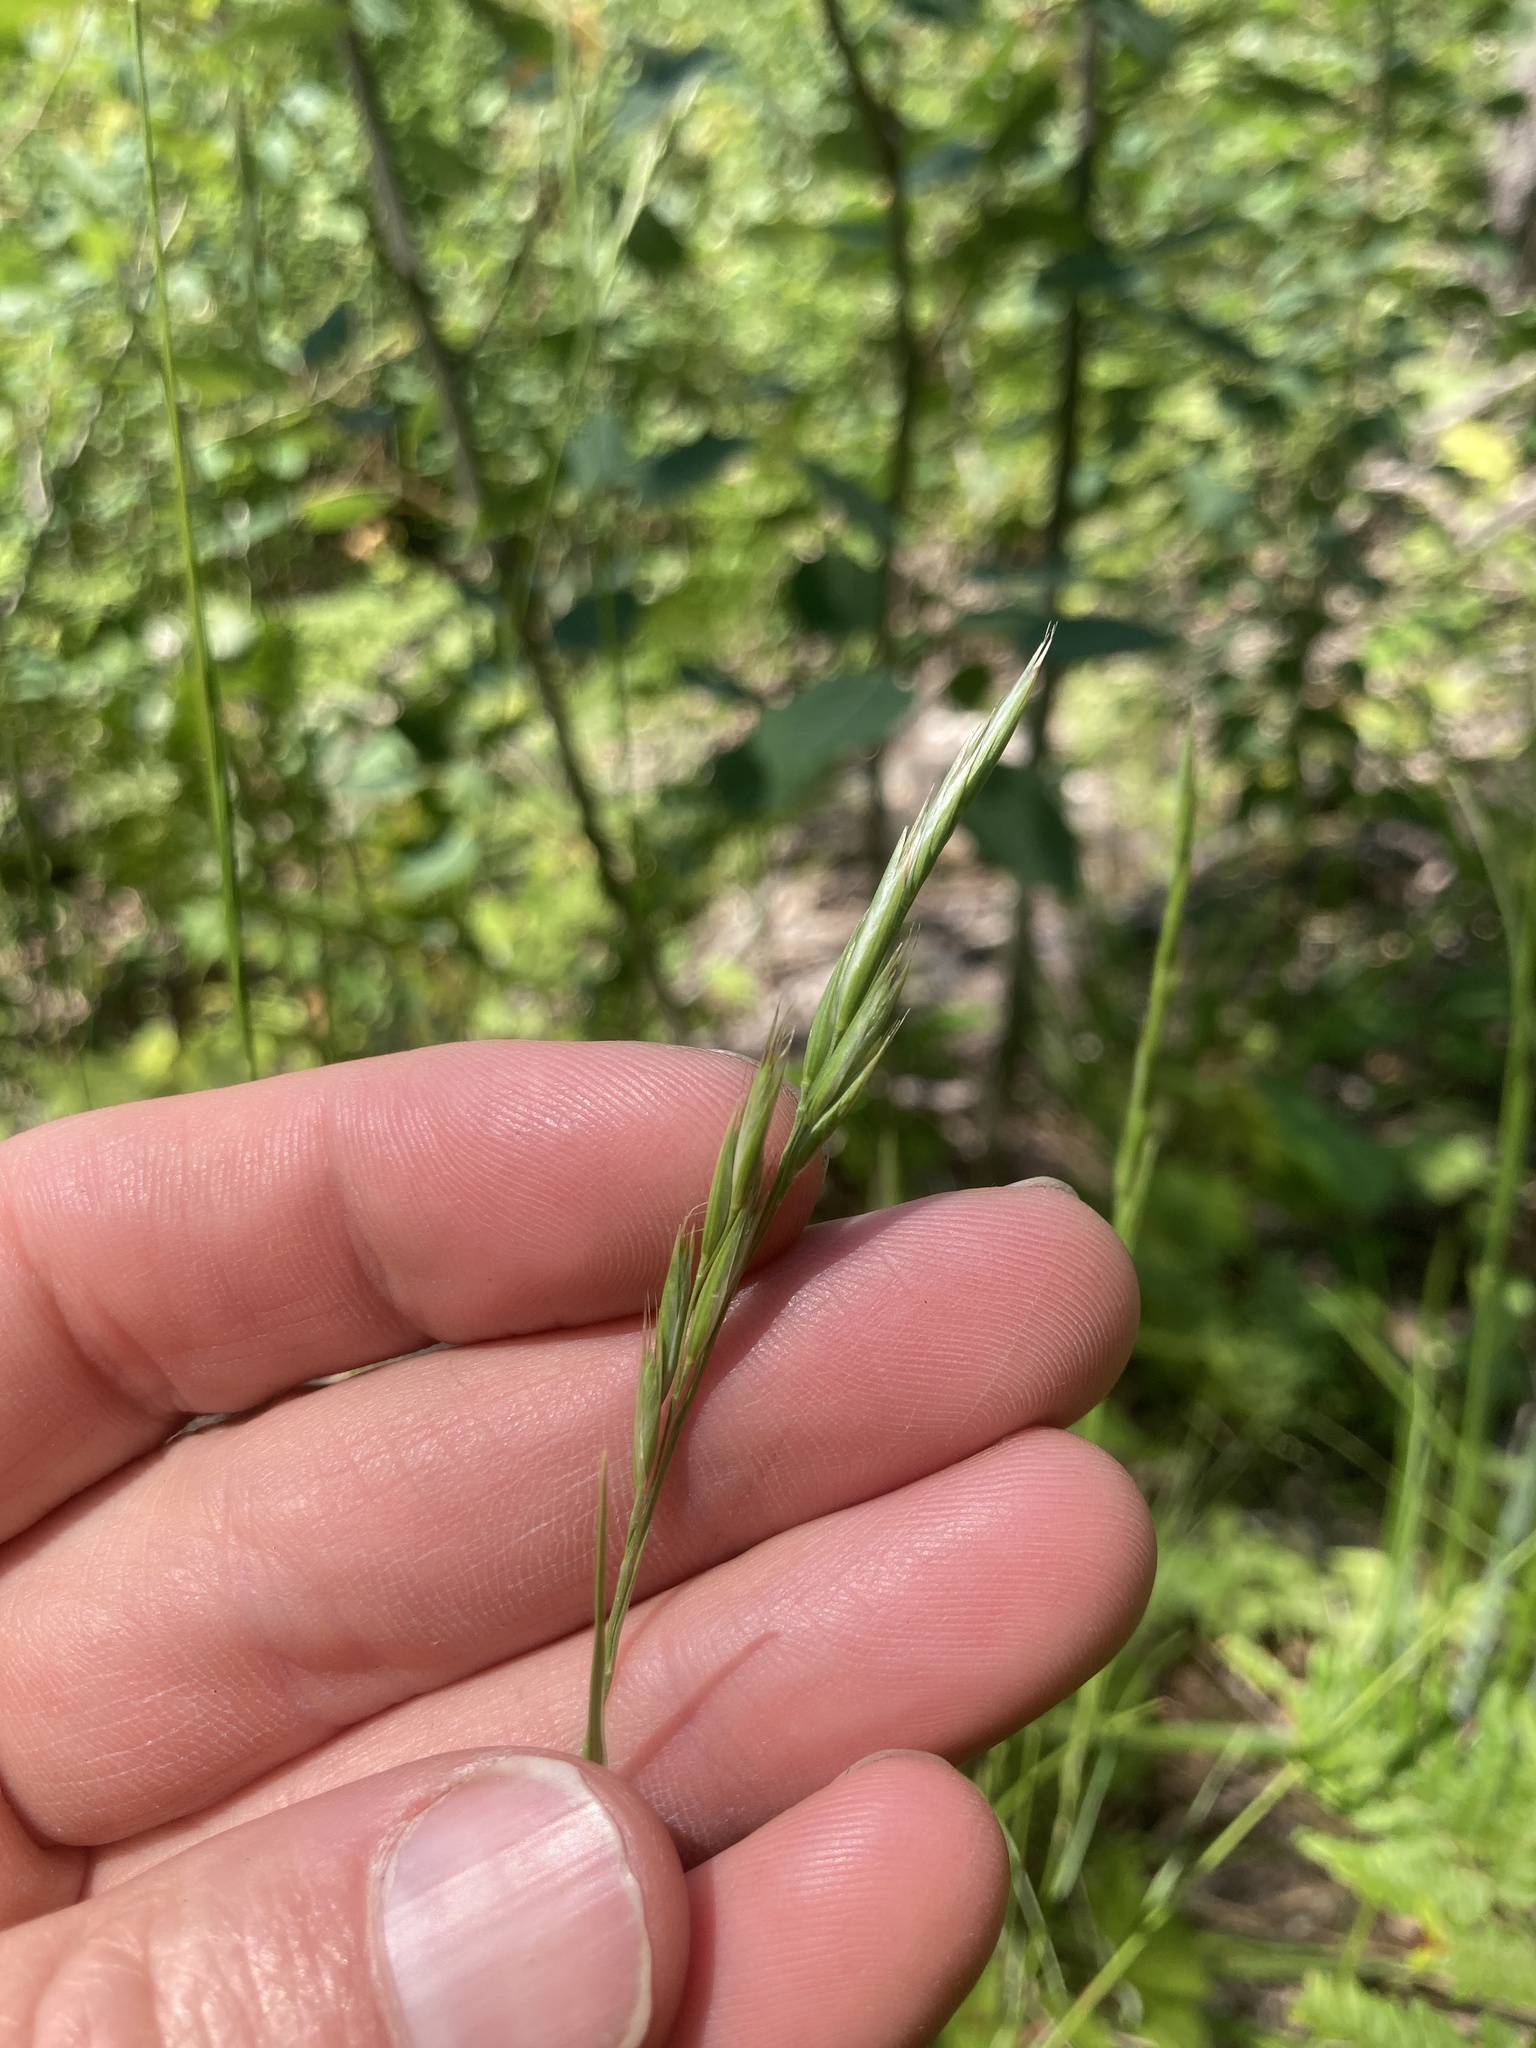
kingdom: Plantae
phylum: Tracheophyta
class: Liliopsida
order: Poales
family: Poaceae
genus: Danthonia
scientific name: Danthonia spicata
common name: Common wild oatgrass
